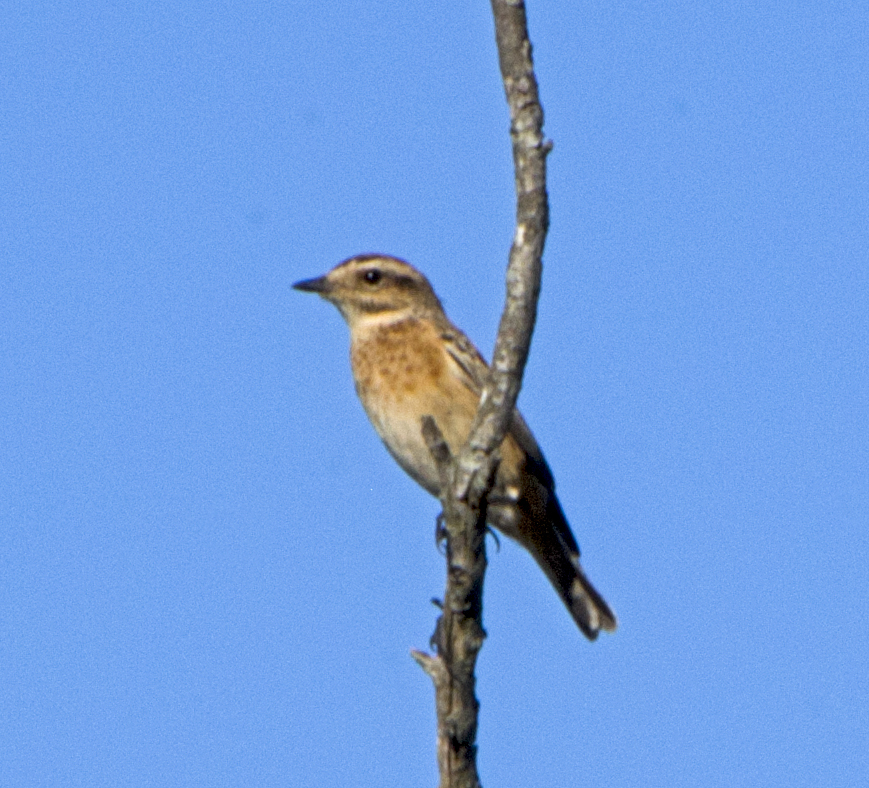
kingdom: Animalia
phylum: Chordata
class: Aves
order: Passeriformes
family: Muscicapidae
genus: Saxicola
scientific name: Saxicola rubetra
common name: Whinchat
